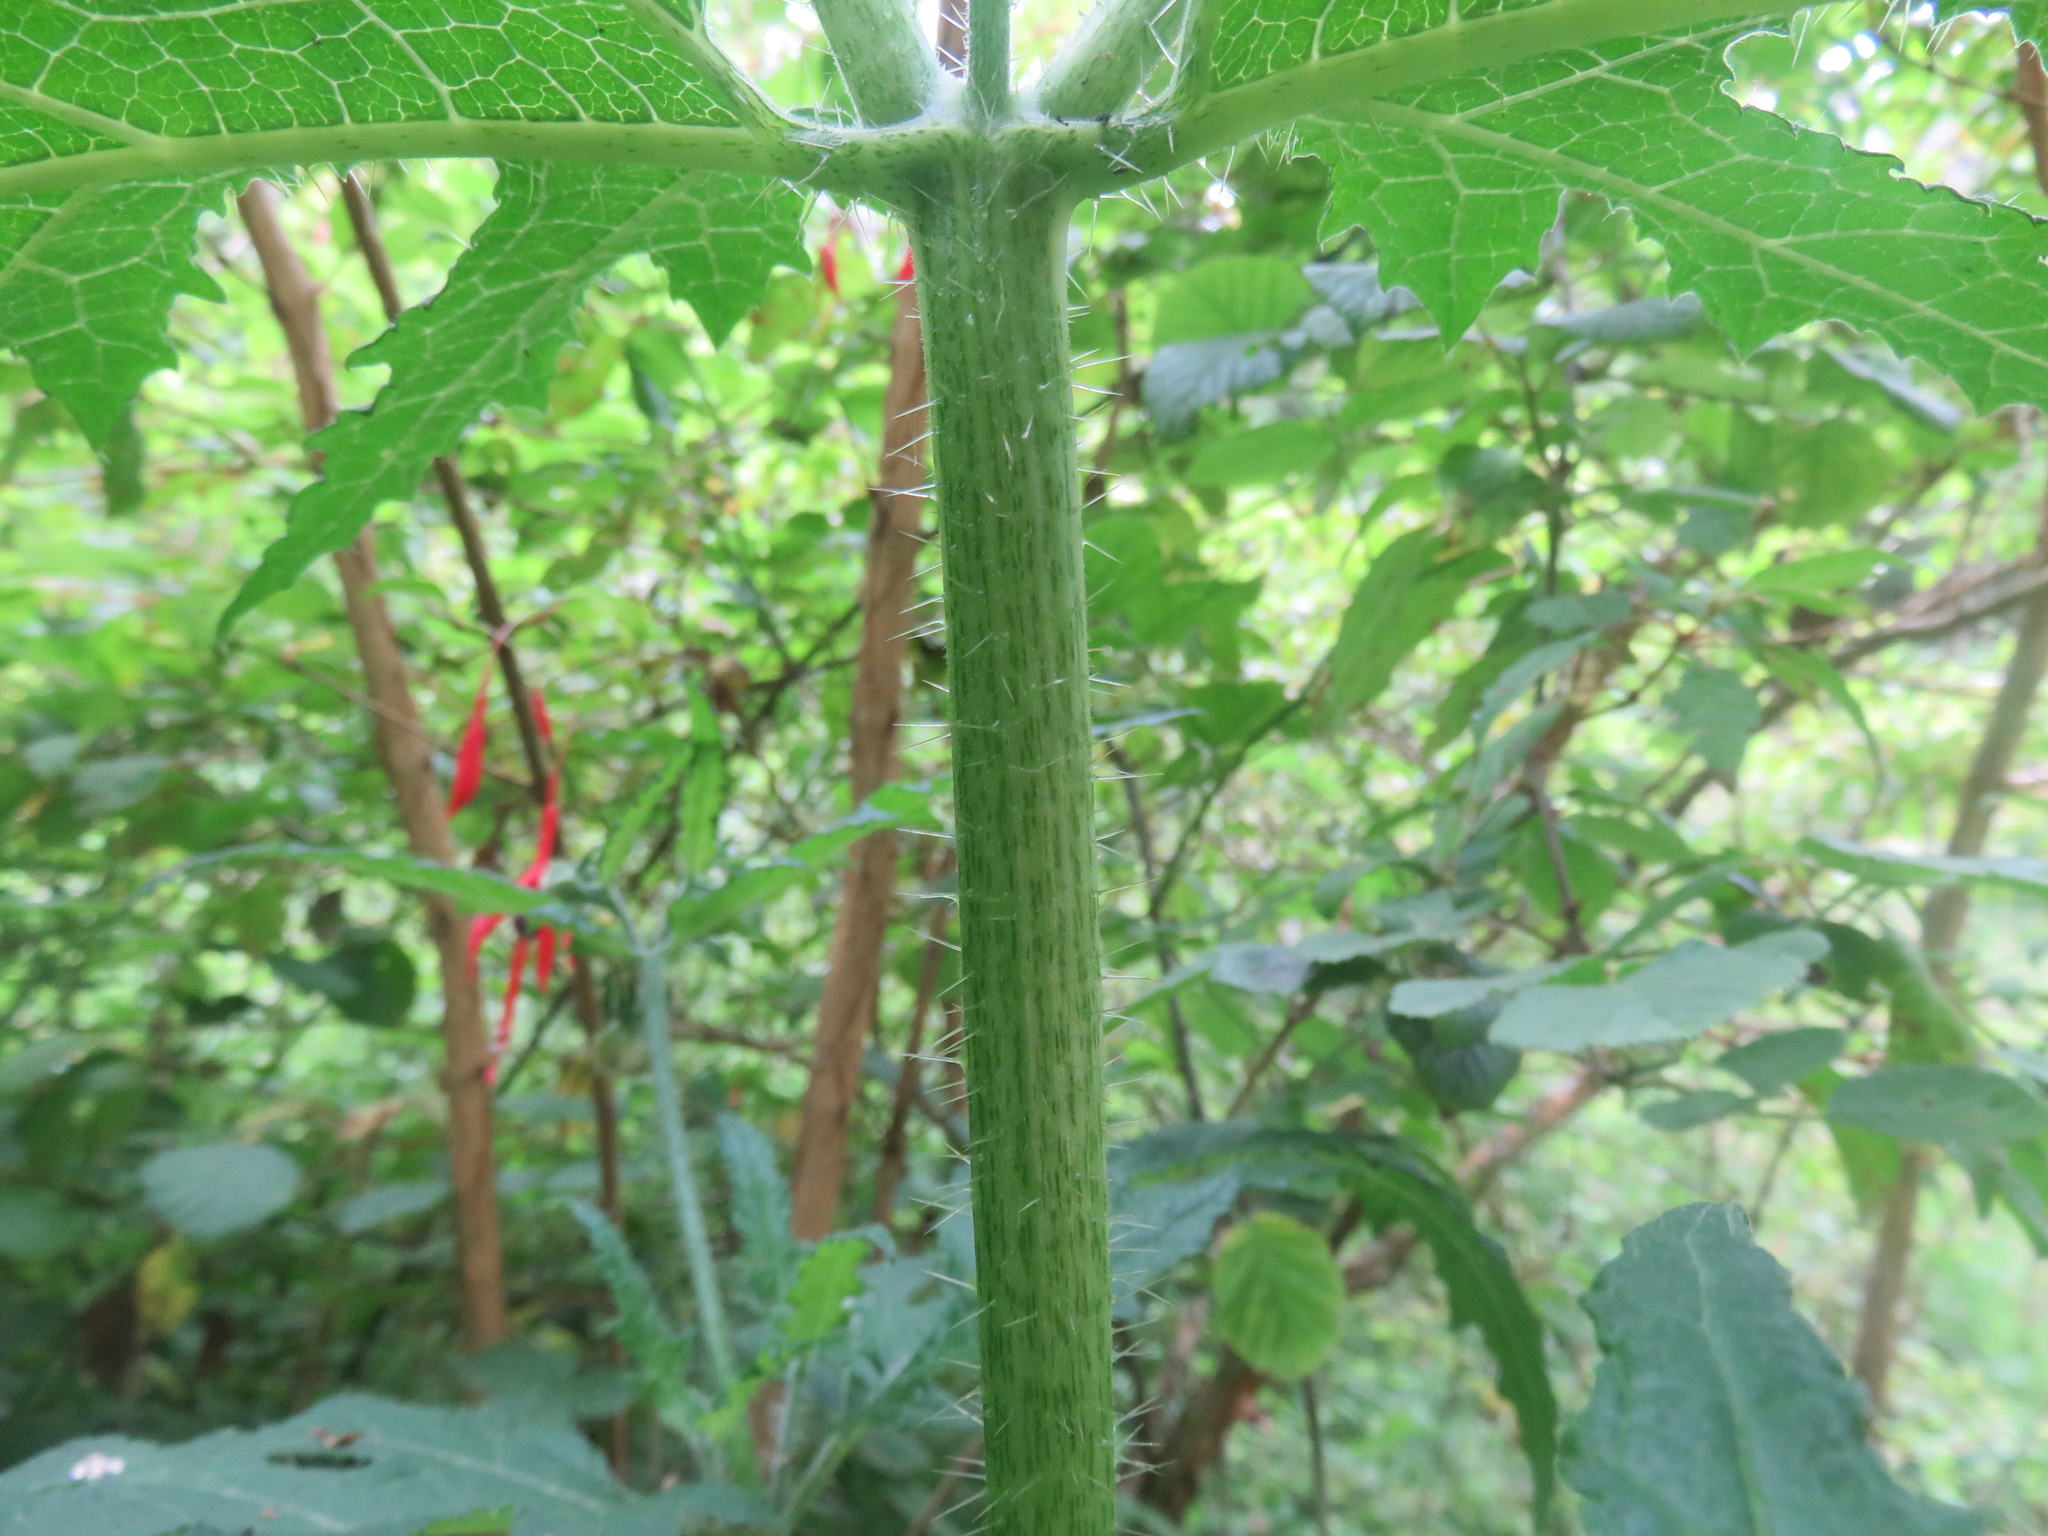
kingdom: Plantae
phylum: Tracheophyta
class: Magnoliopsida
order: Cornales
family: Loasaceae
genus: Loasa
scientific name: Loasa acanthifolia
